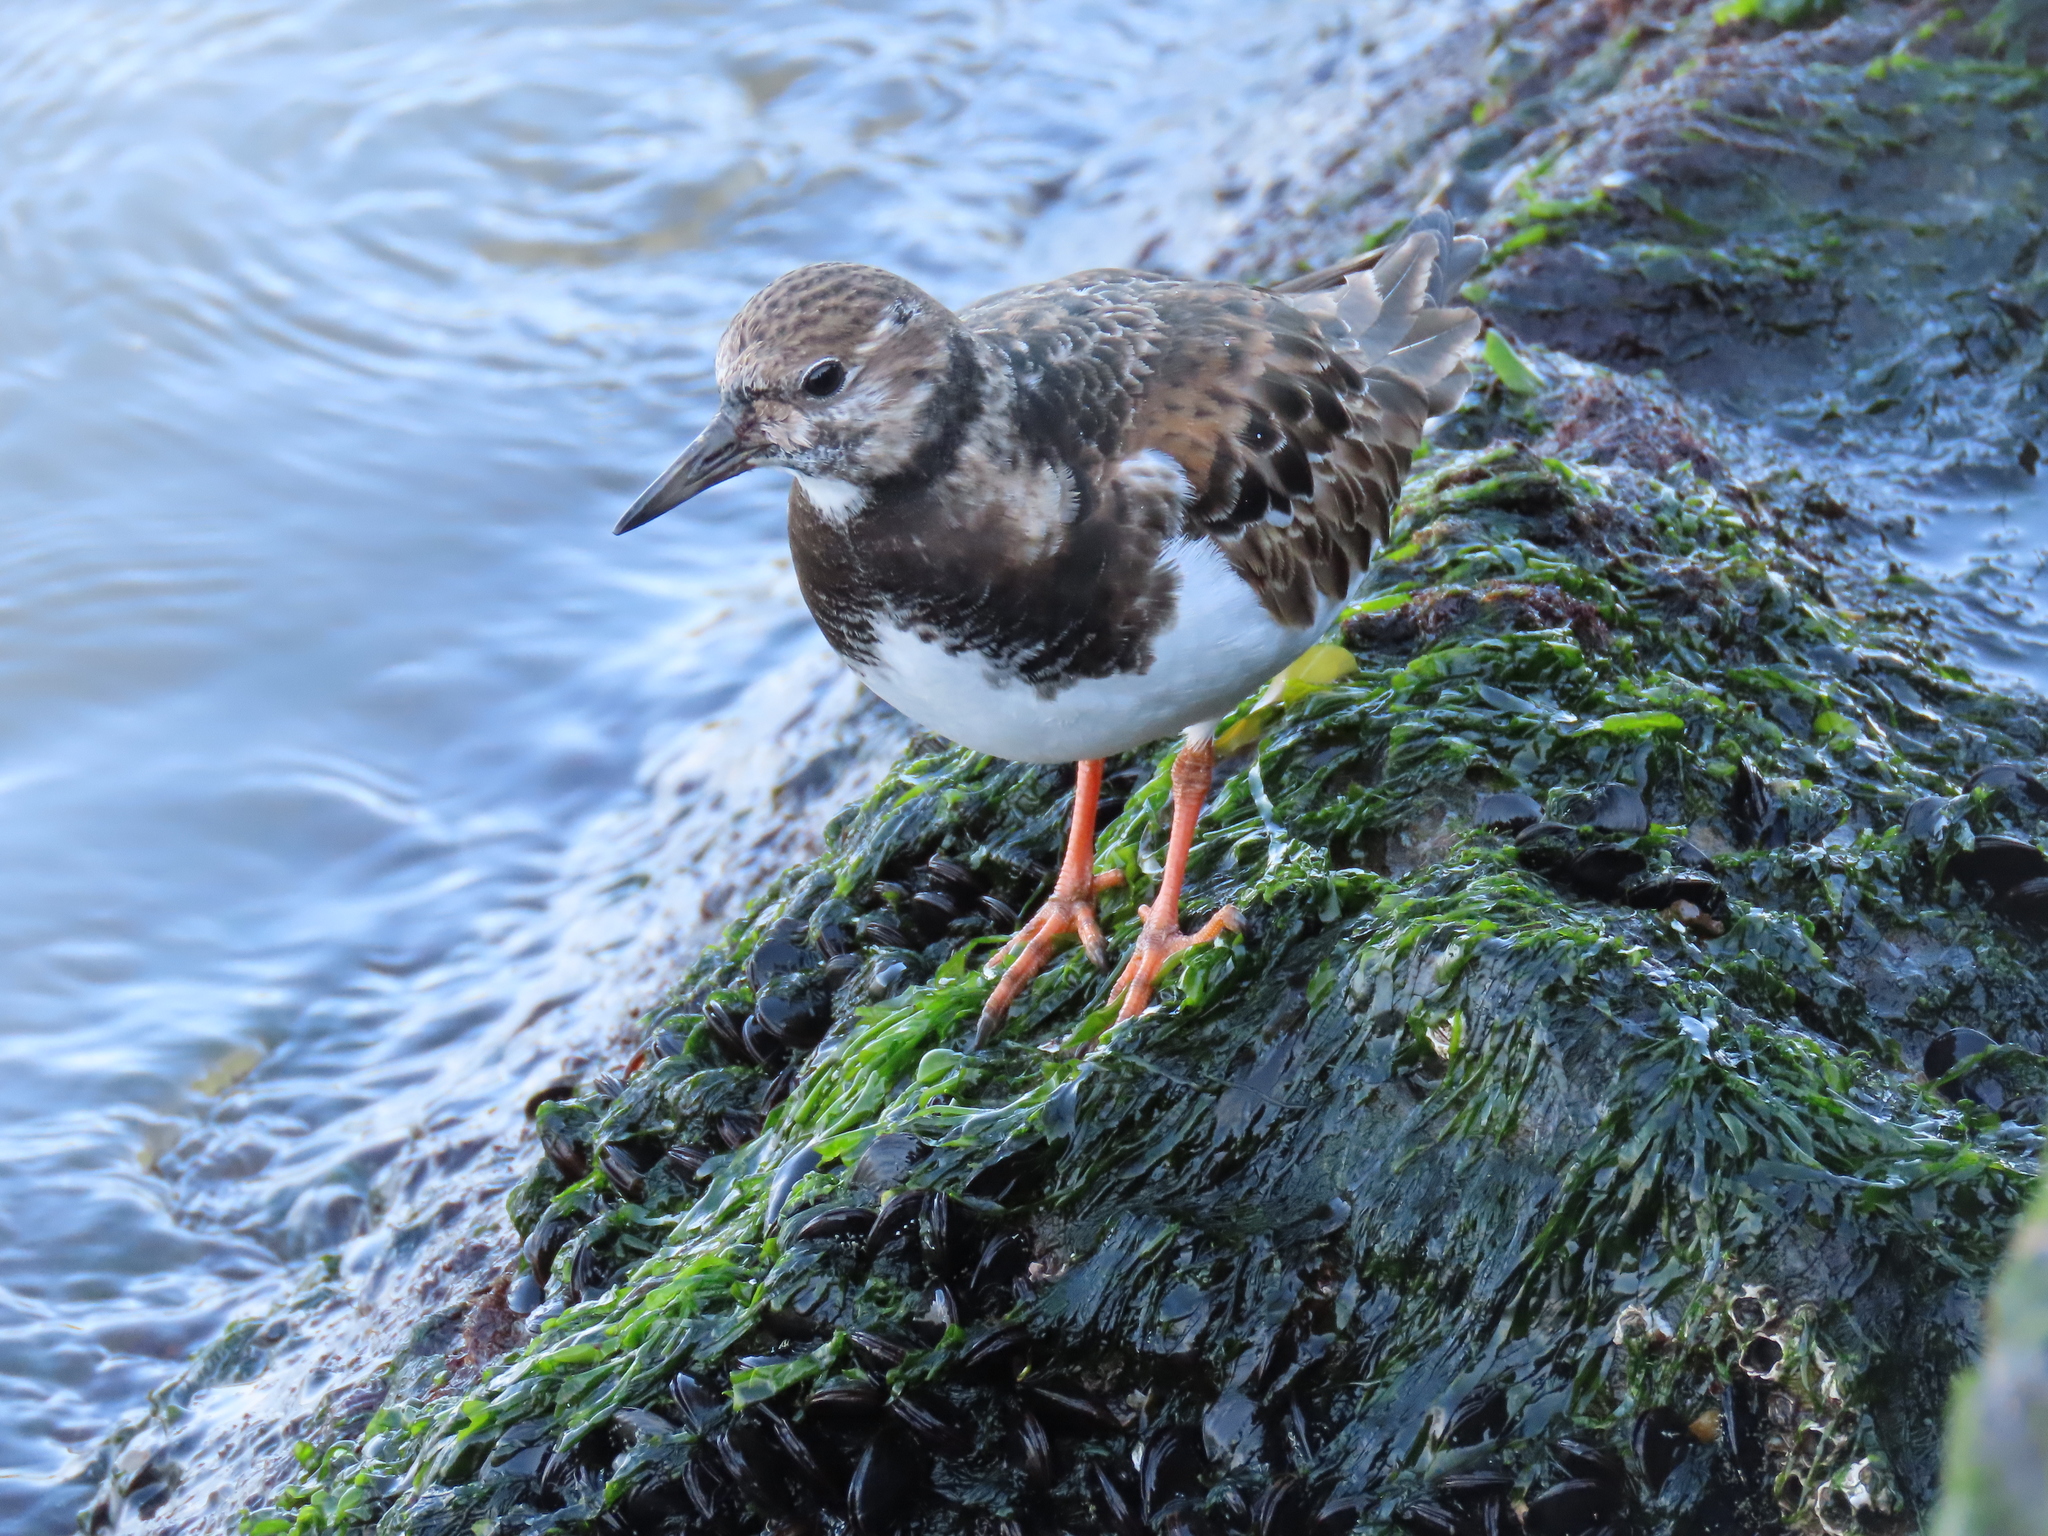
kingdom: Animalia
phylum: Chordata
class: Aves
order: Charadriiformes
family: Scolopacidae
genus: Arenaria
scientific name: Arenaria interpres
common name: Ruddy turnstone
